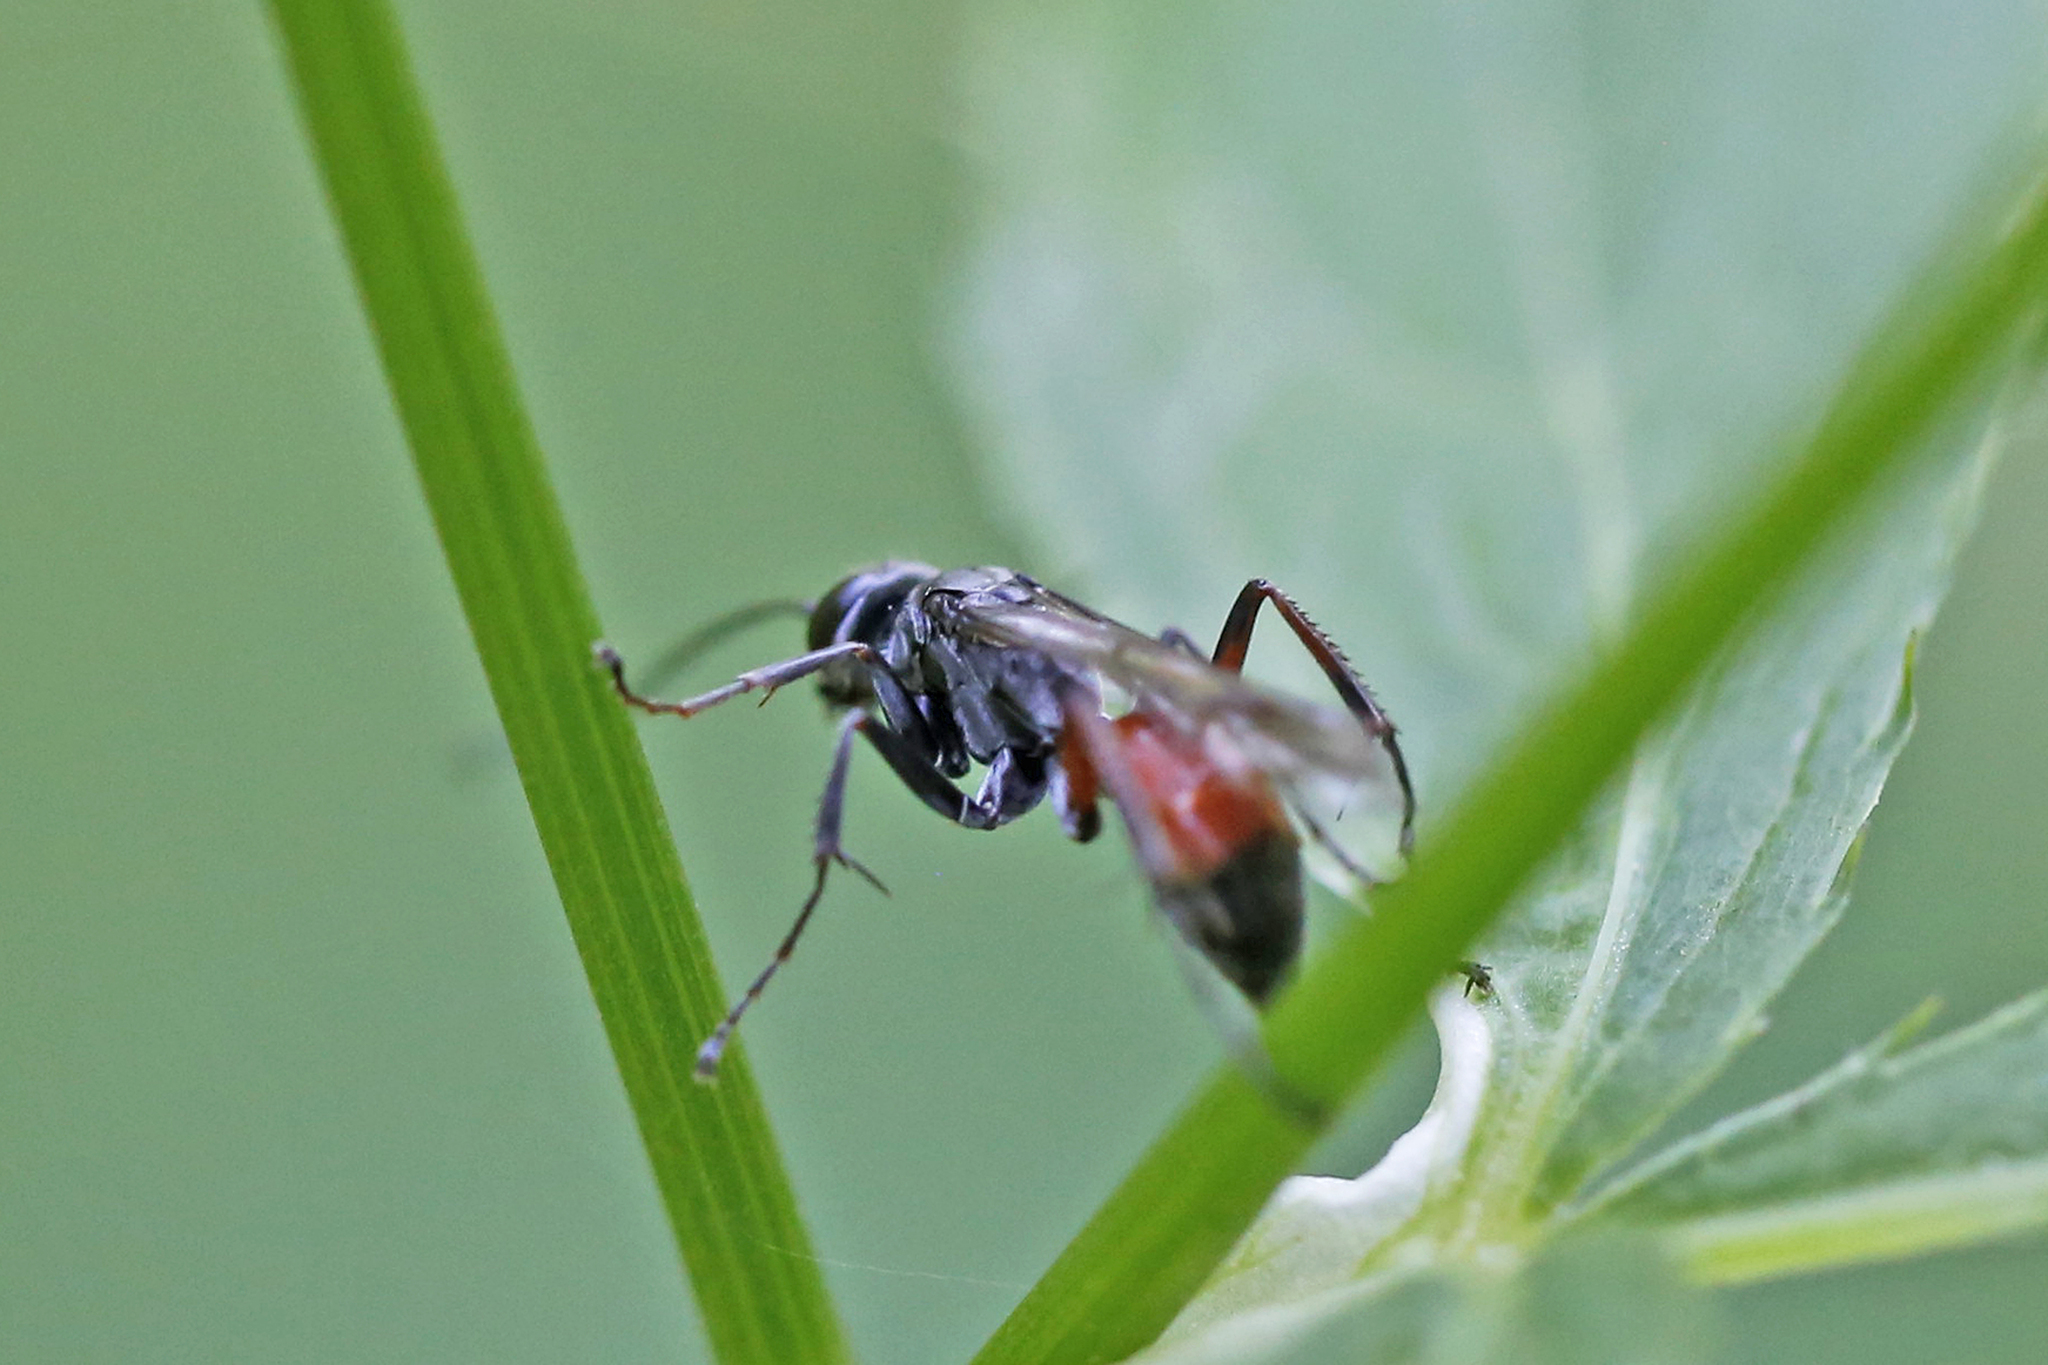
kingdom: Animalia
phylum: Arthropoda
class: Insecta
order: Hymenoptera
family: Pompilidae
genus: Caliadurgus
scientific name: Caliadurgus fasciatellus
